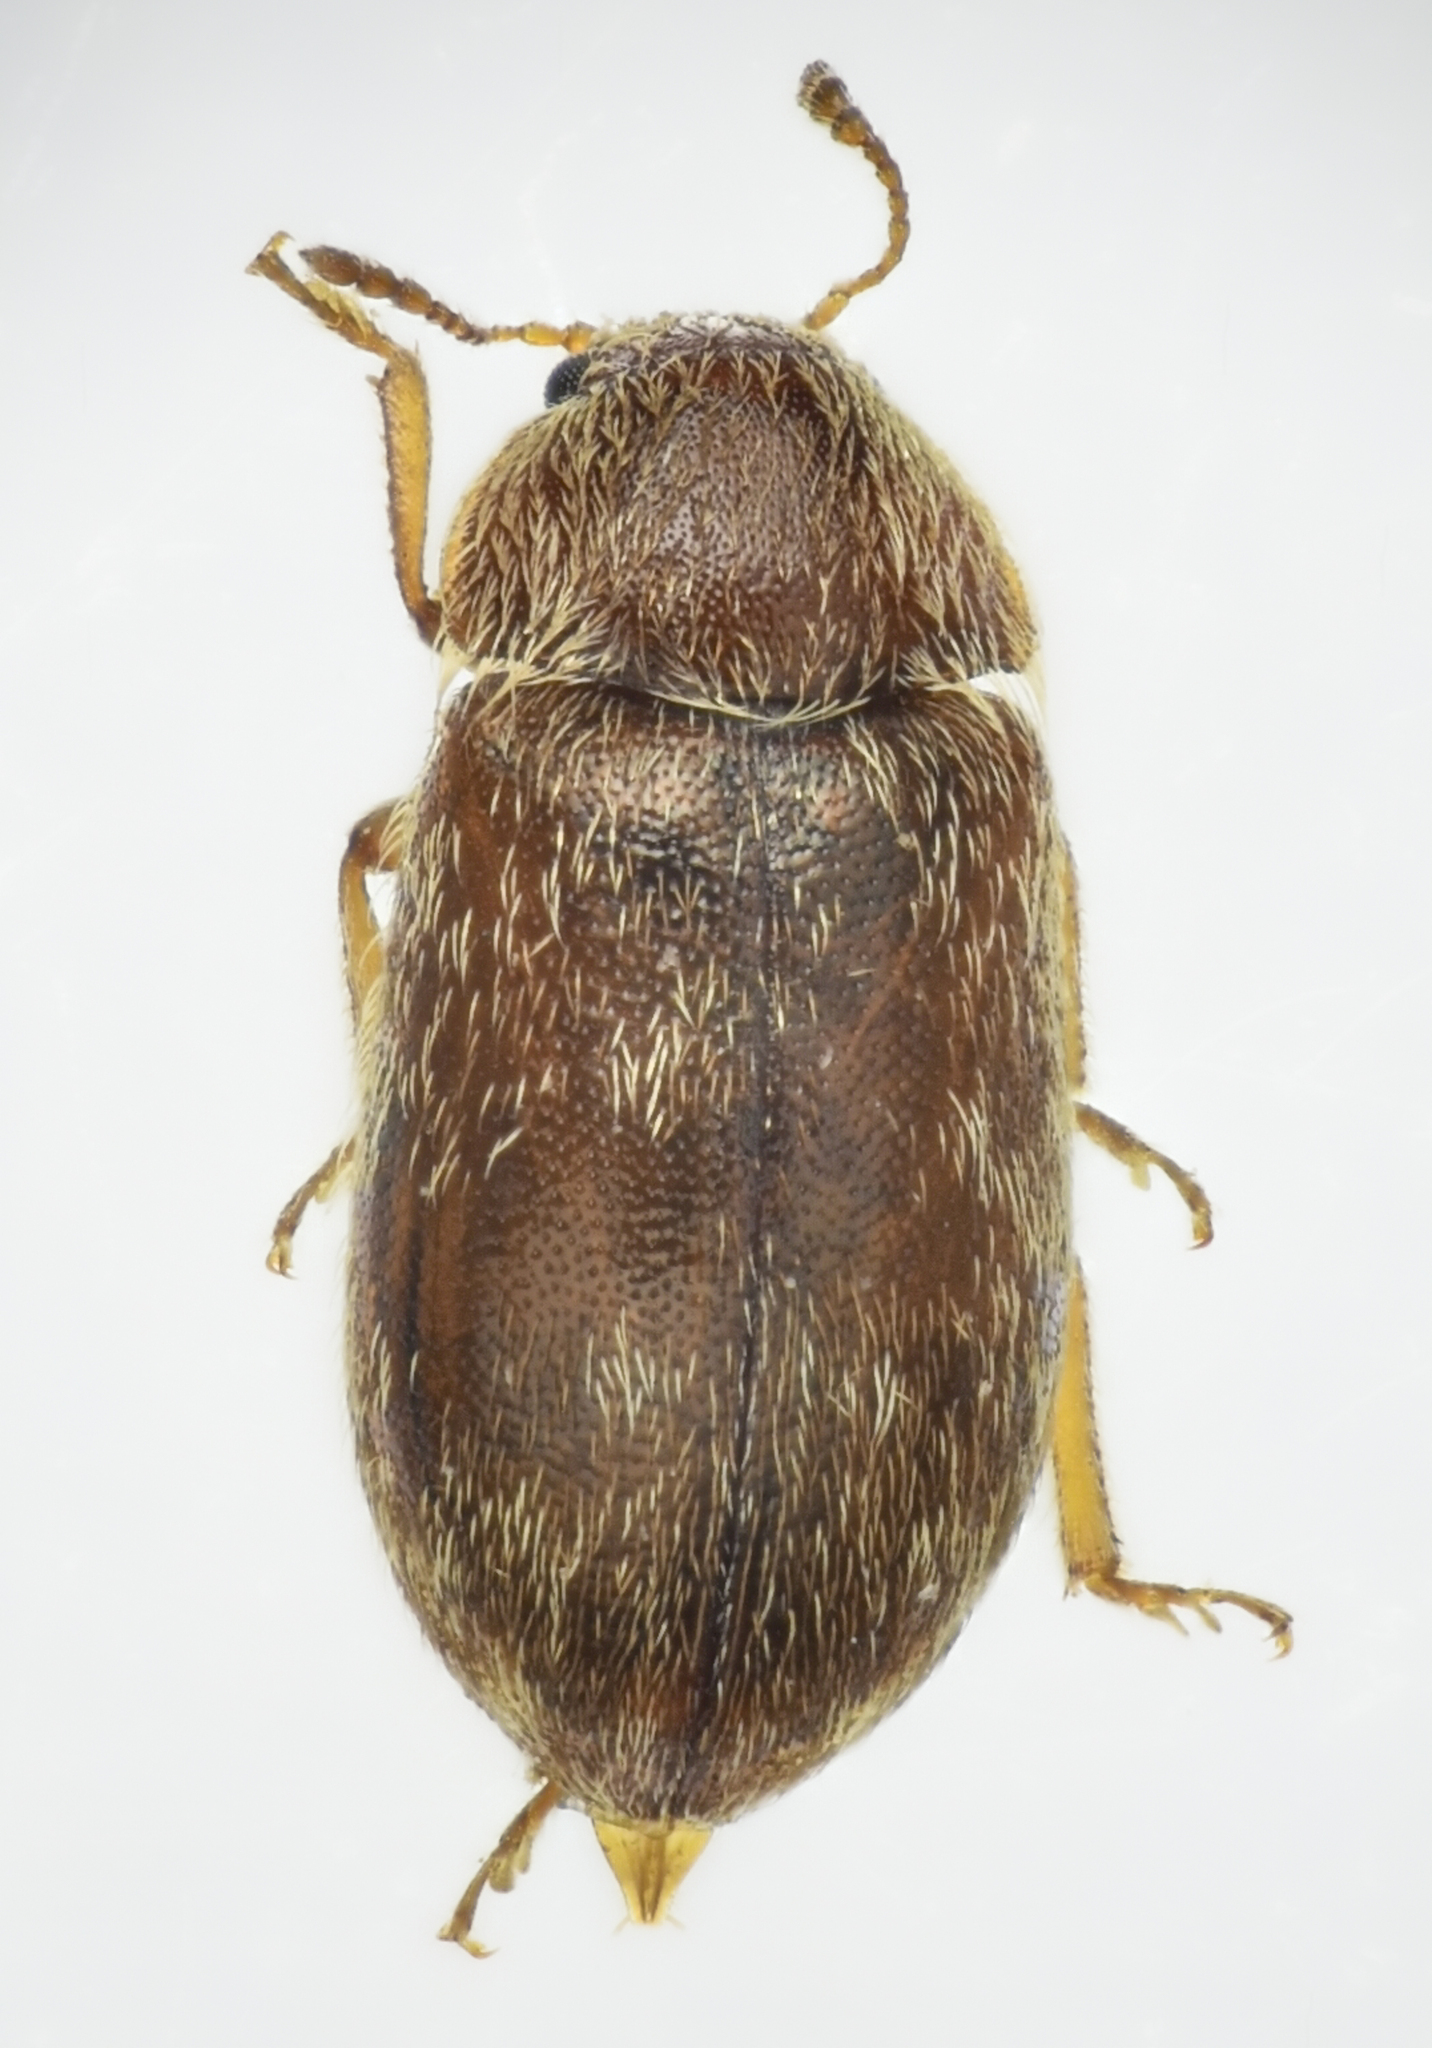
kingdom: Animalia
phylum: Arthropoda
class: Insecta
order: Coleoptera
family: Byturidae
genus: Xerasia
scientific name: Xerasia grisescens
